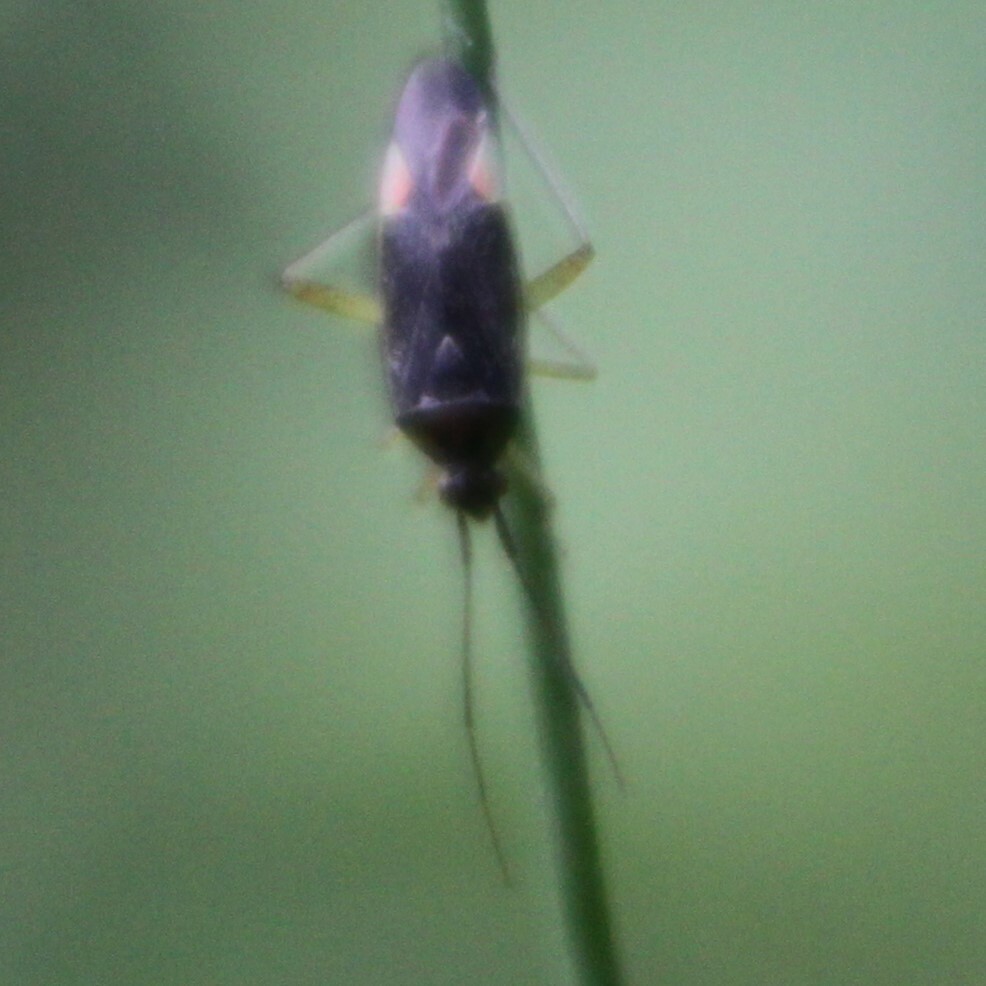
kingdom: Animalia
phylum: Arthropoda
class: Insecta
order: Hemiptera
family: Miridae
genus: Closterotomus
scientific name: Closterotomus trivialis
